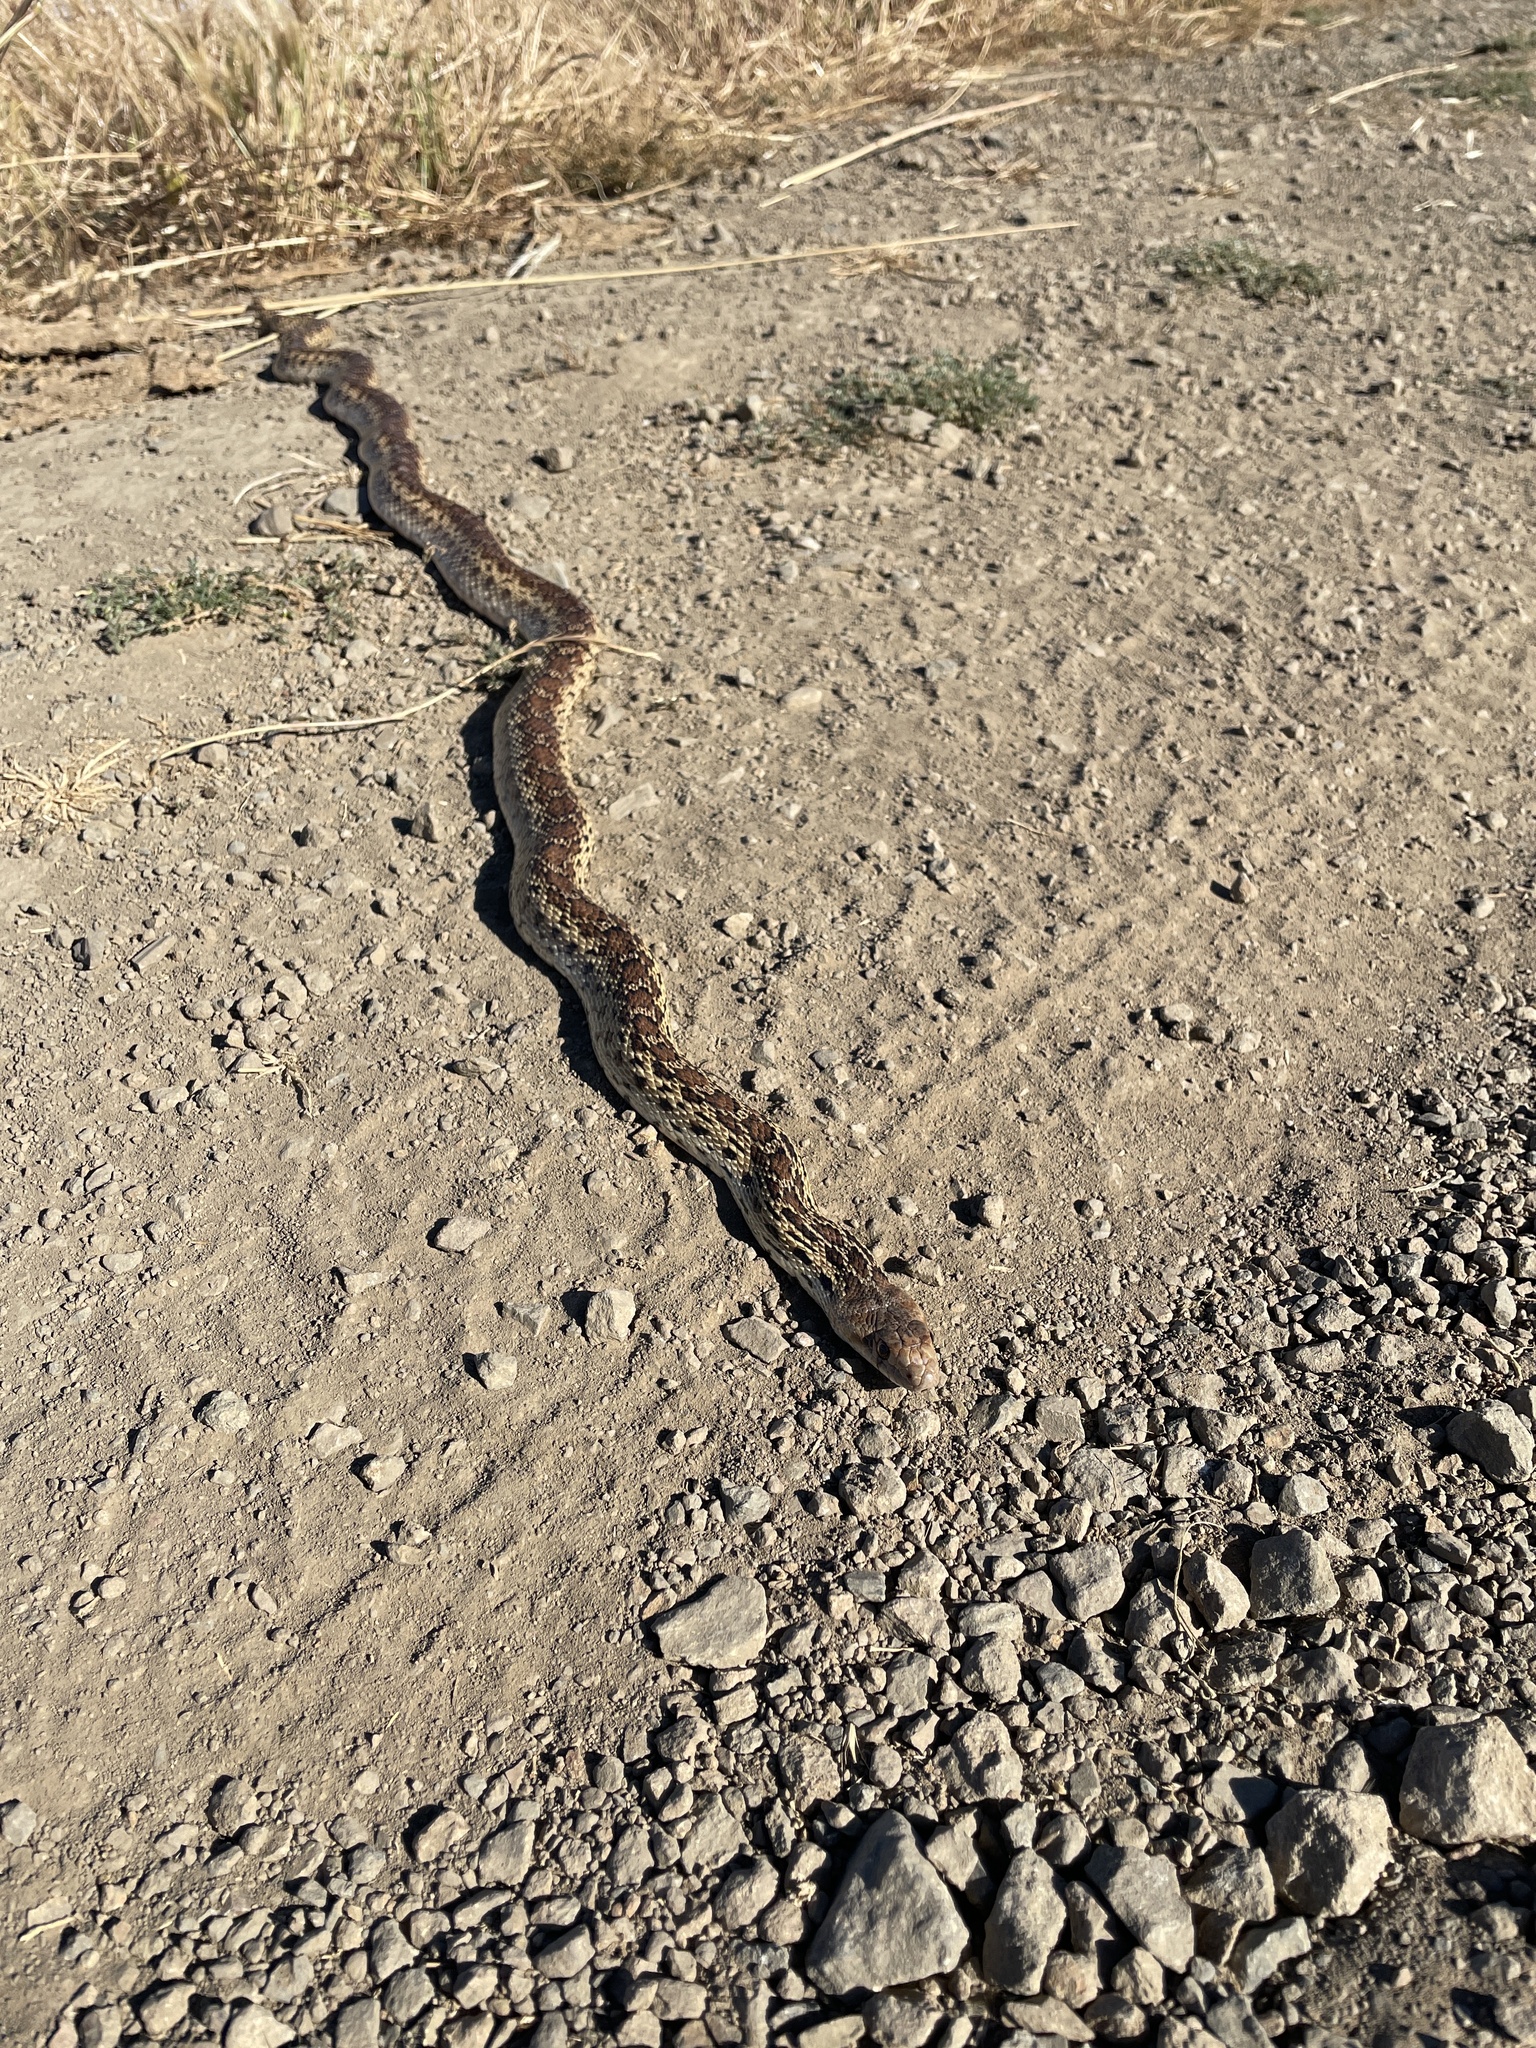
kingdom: Animalia
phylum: Chordata
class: Squamata
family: Colubridae
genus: Pituophis
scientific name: Pituophis catenifer
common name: Gopher snake
